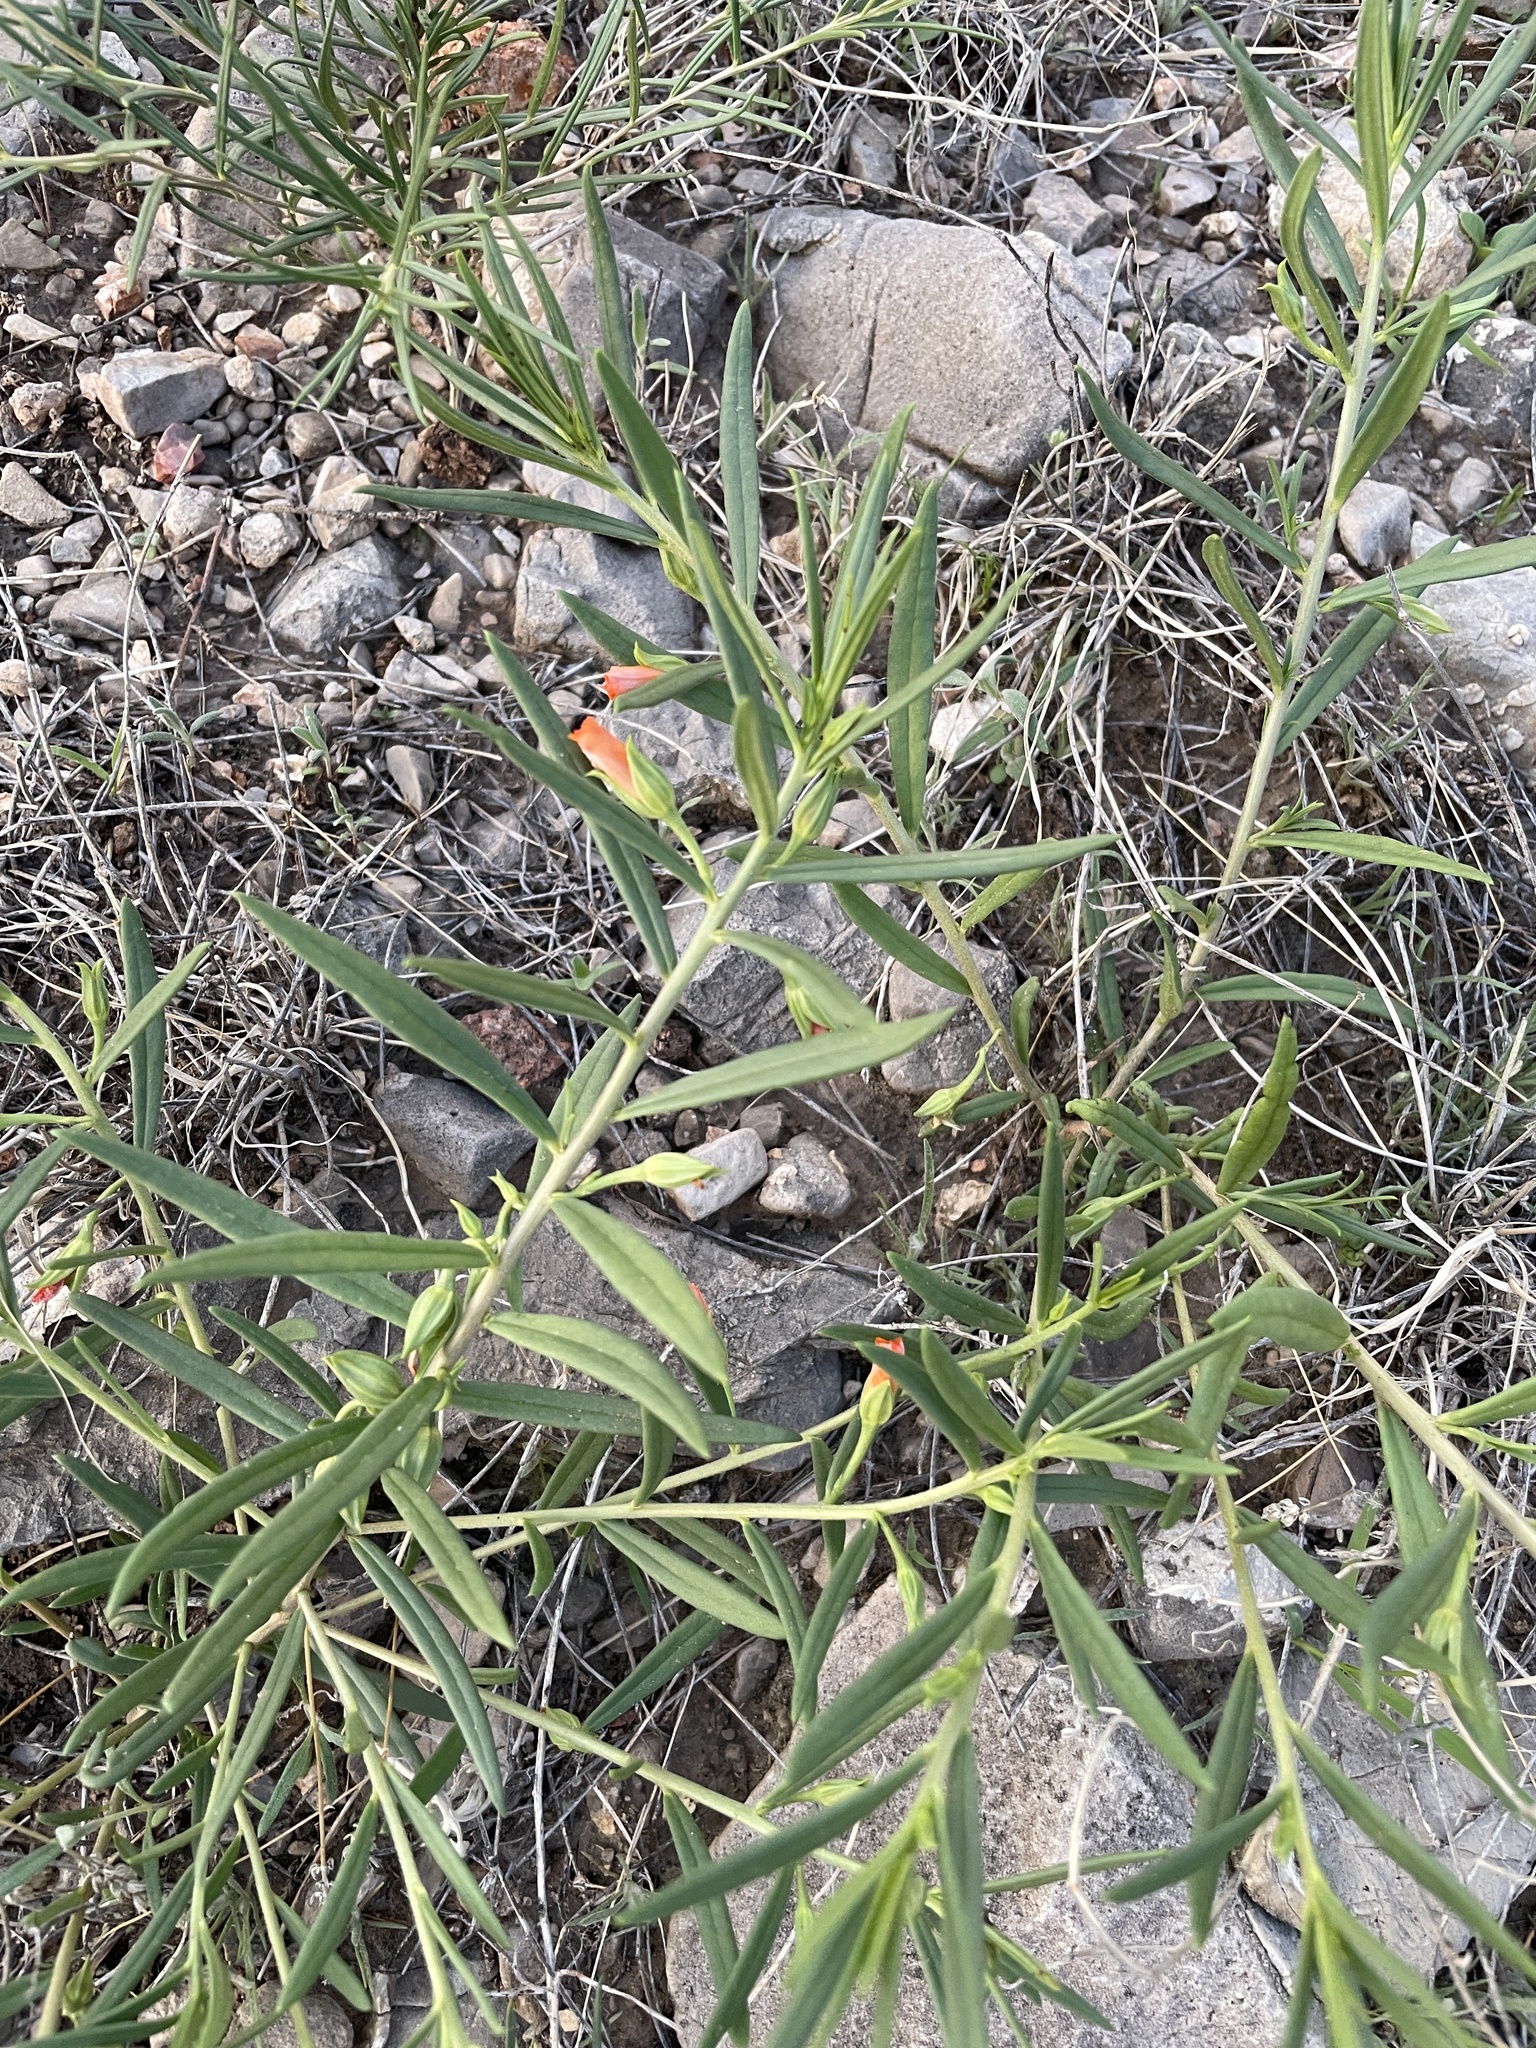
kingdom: Plantae
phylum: Tracheophyta
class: Magnoliopsida
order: Caryophyllales
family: Montiaceae
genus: Phemeranthus
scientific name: Phemeranthus aurantiacus
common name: Orange fameflower
